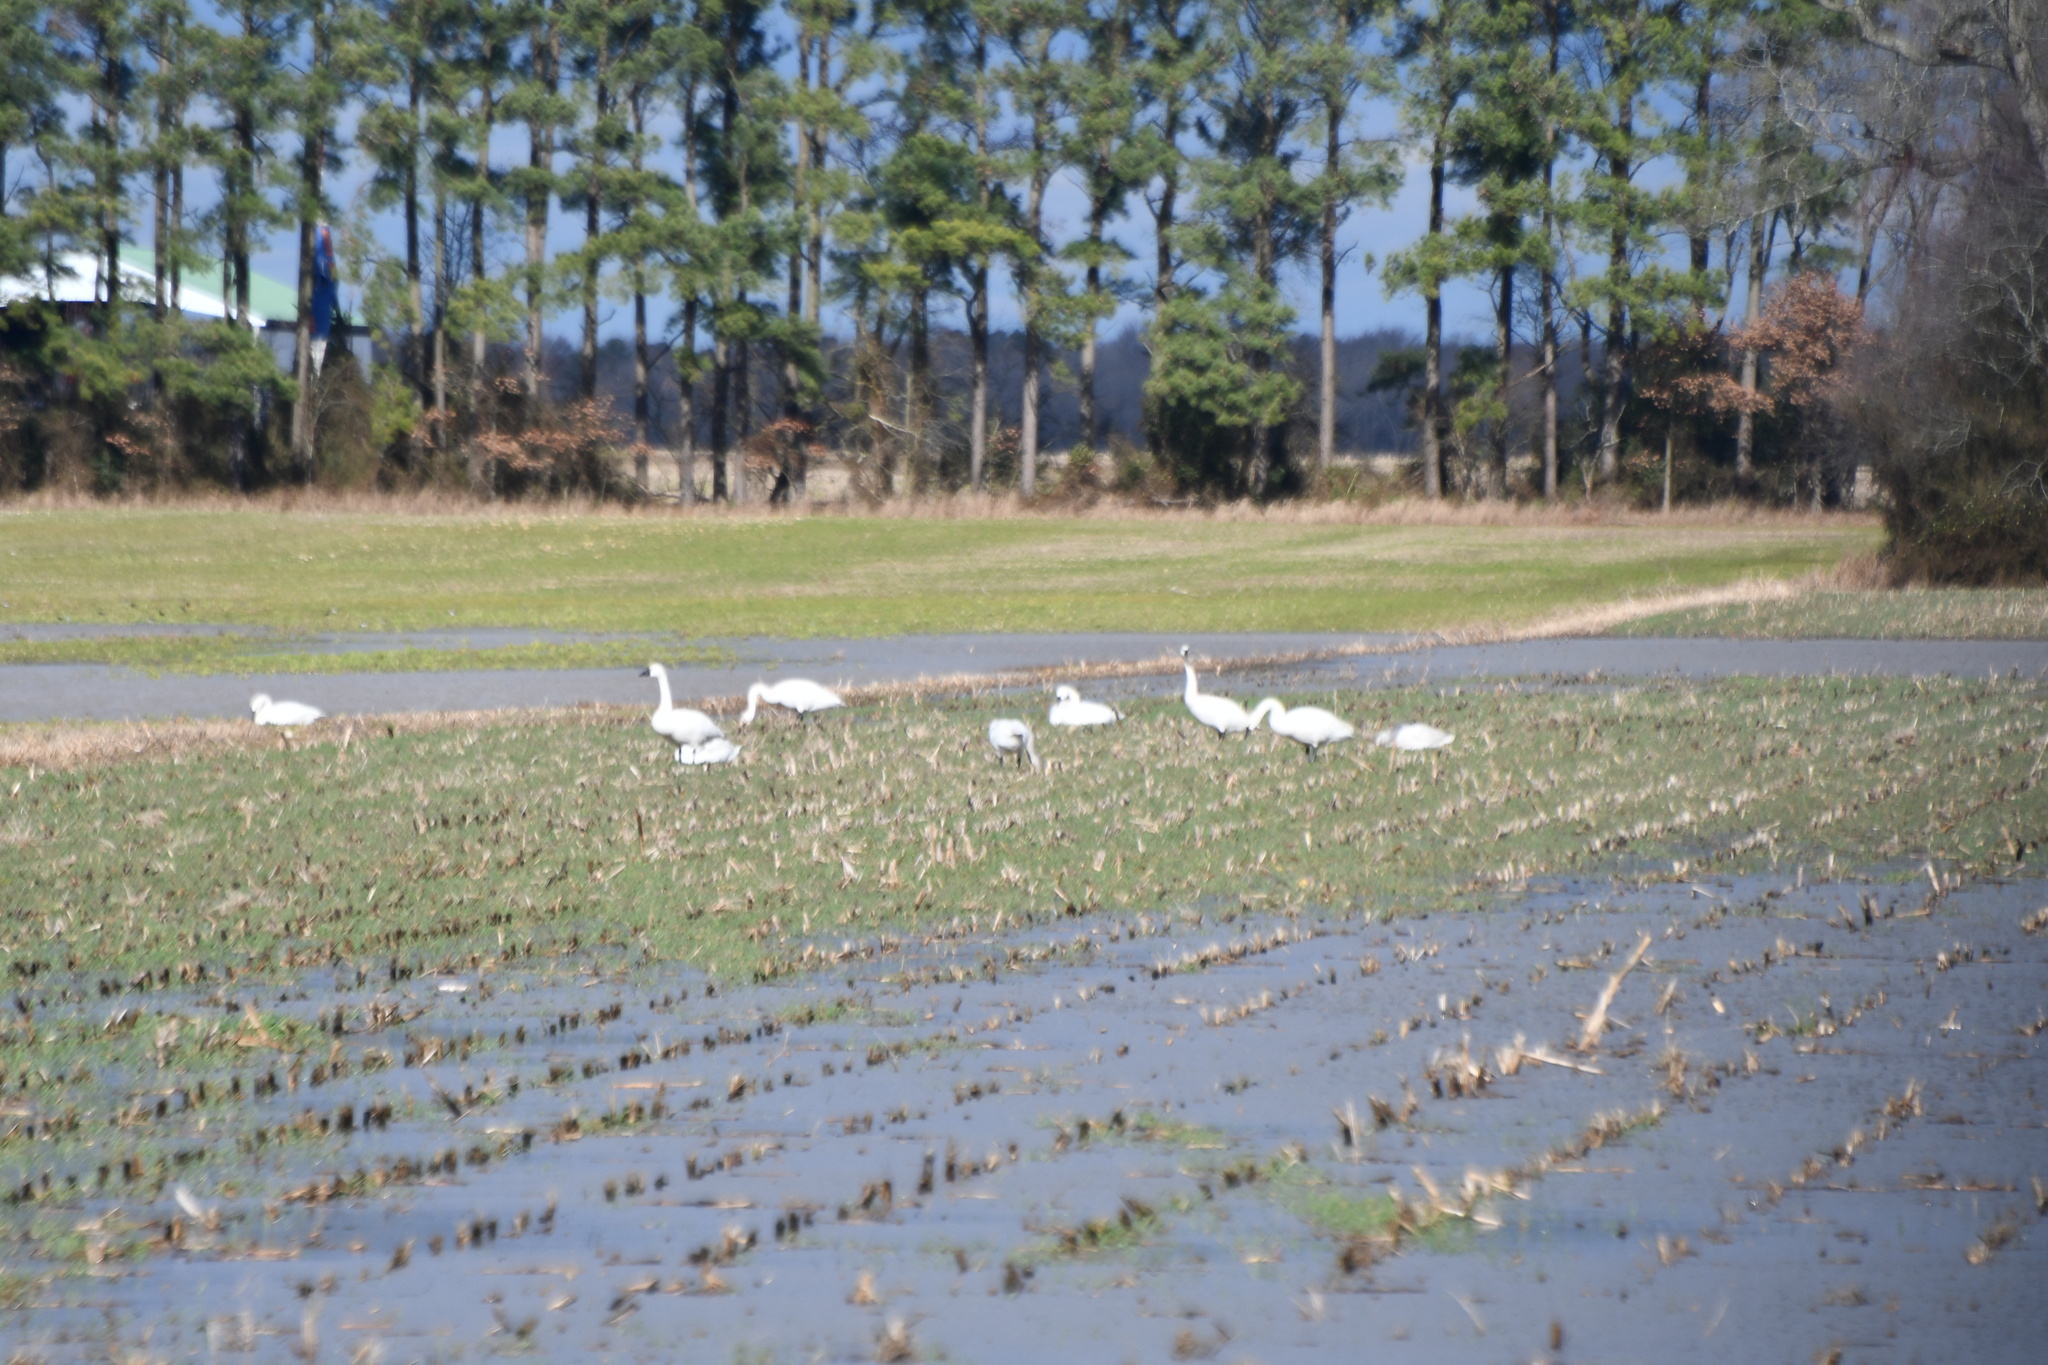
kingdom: Animalia
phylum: Chordata
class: Aves
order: Anseriformes
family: Anatidae
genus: Cygnus
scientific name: Cygnus columbianus
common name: Tundra swan
